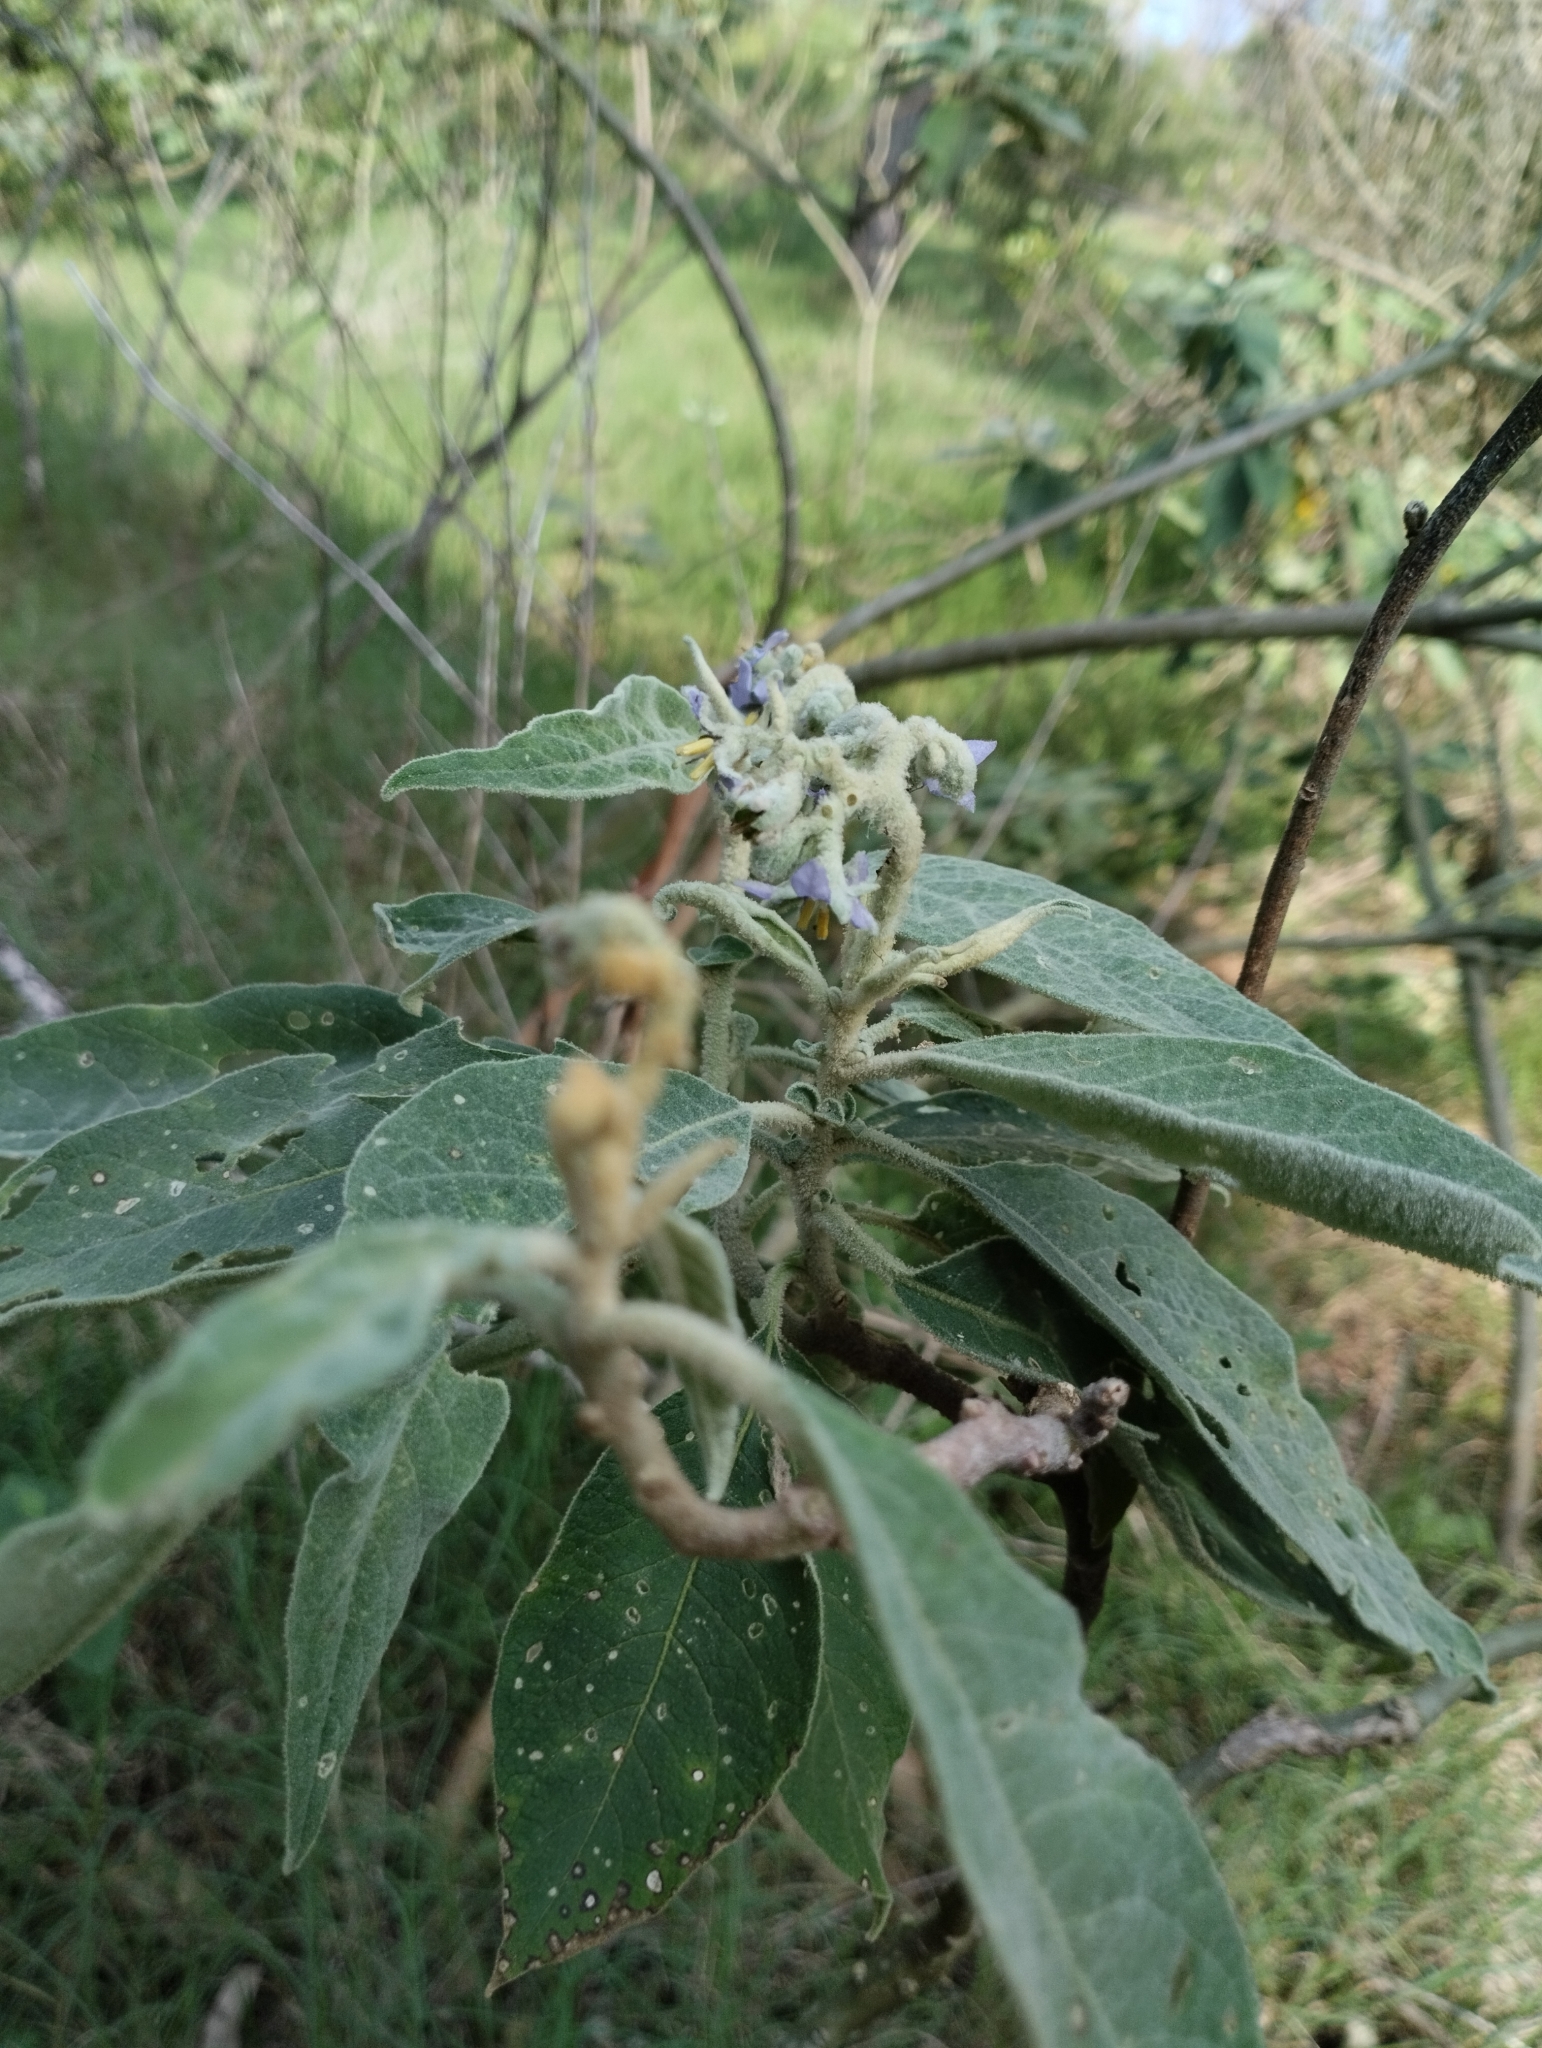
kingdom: Plantae
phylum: Tracheophyta
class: Magnoliopsida
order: Solanales
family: Solanaceae
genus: Solanum
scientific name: Solanum mauritianum
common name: Earleaf nightshade
